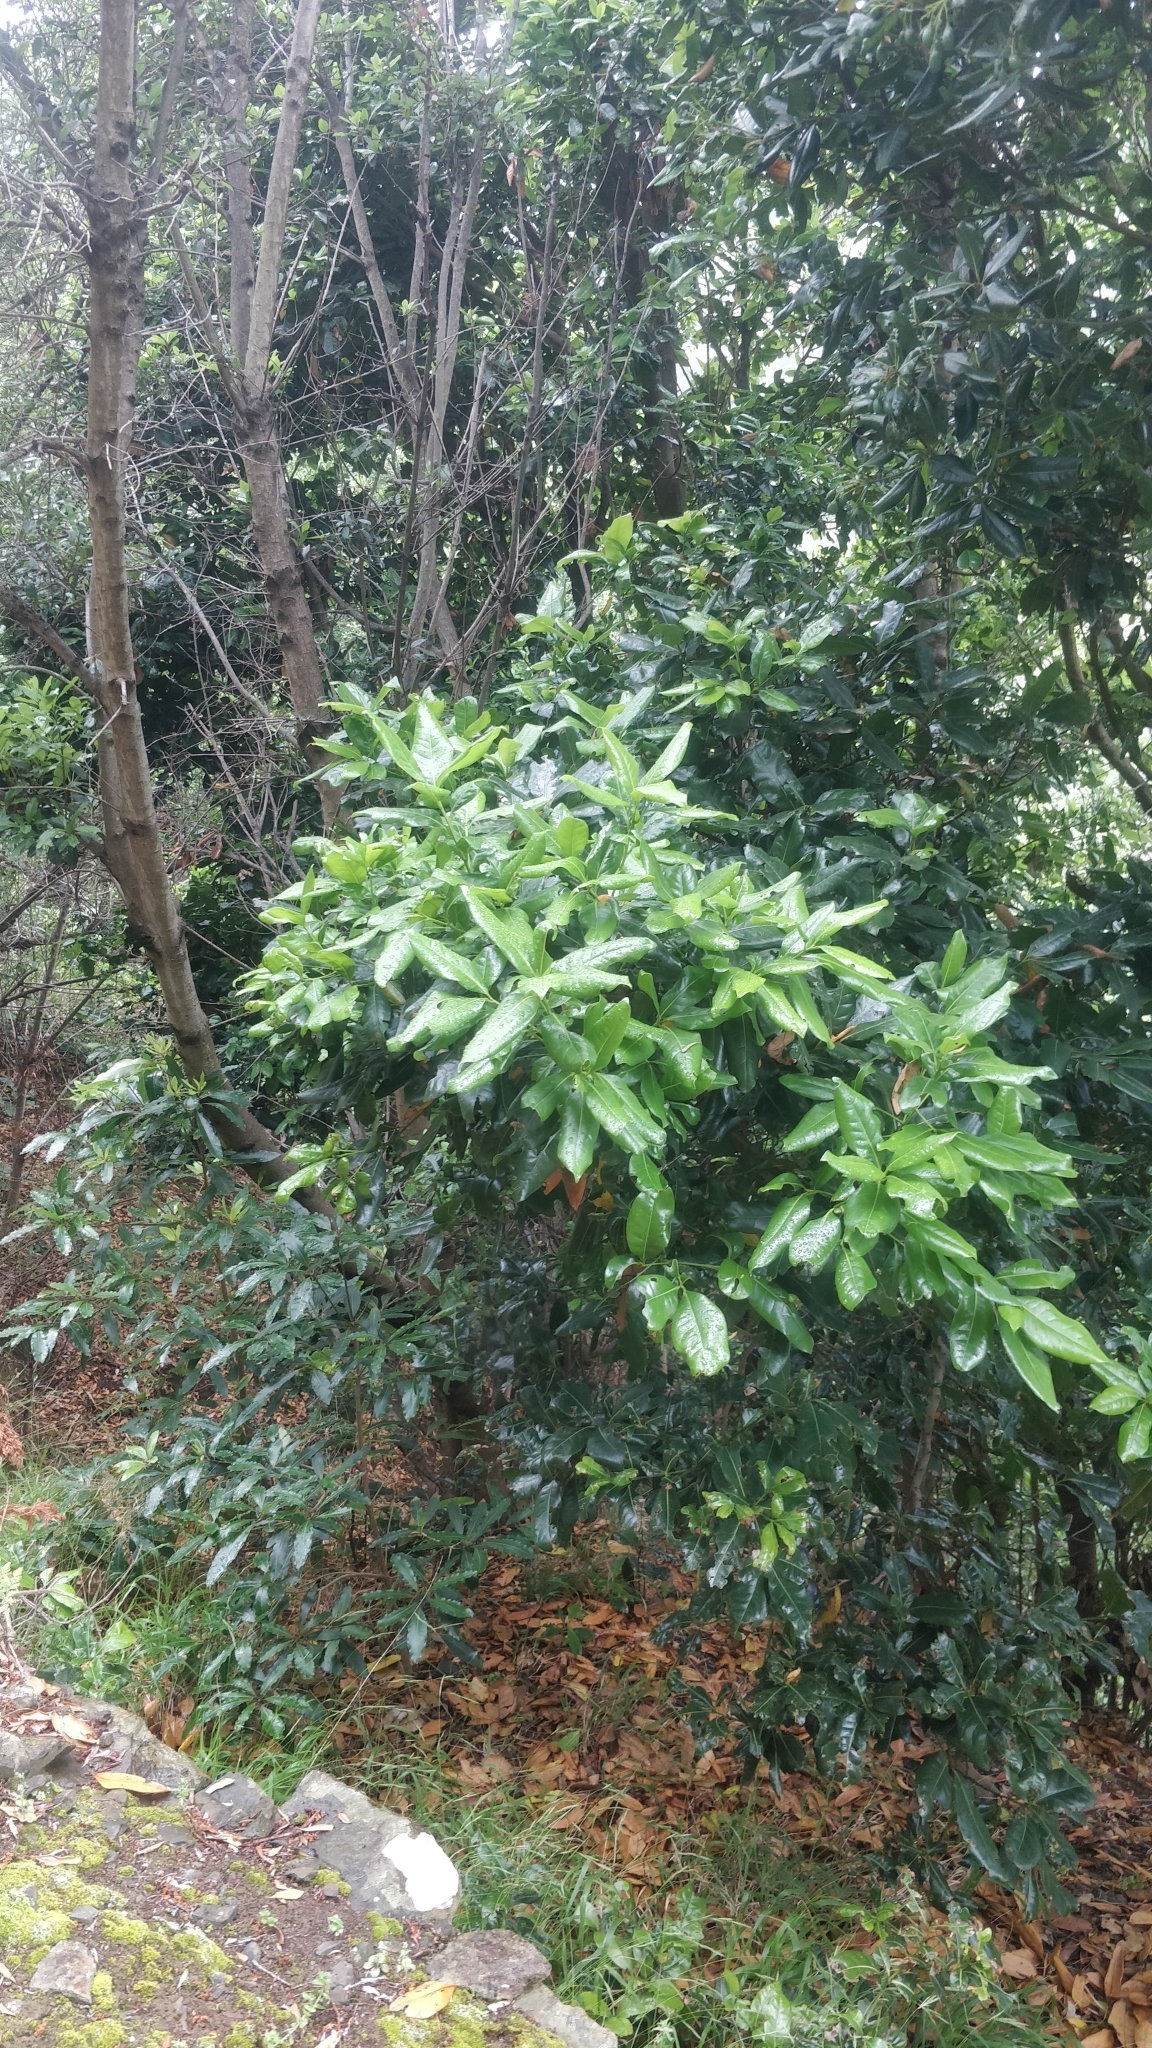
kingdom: Plantae
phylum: Tracheophyta
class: Magnoliopsida
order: Laurales
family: Lauraceae
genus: Apollonias
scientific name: Apollonias barbujana
